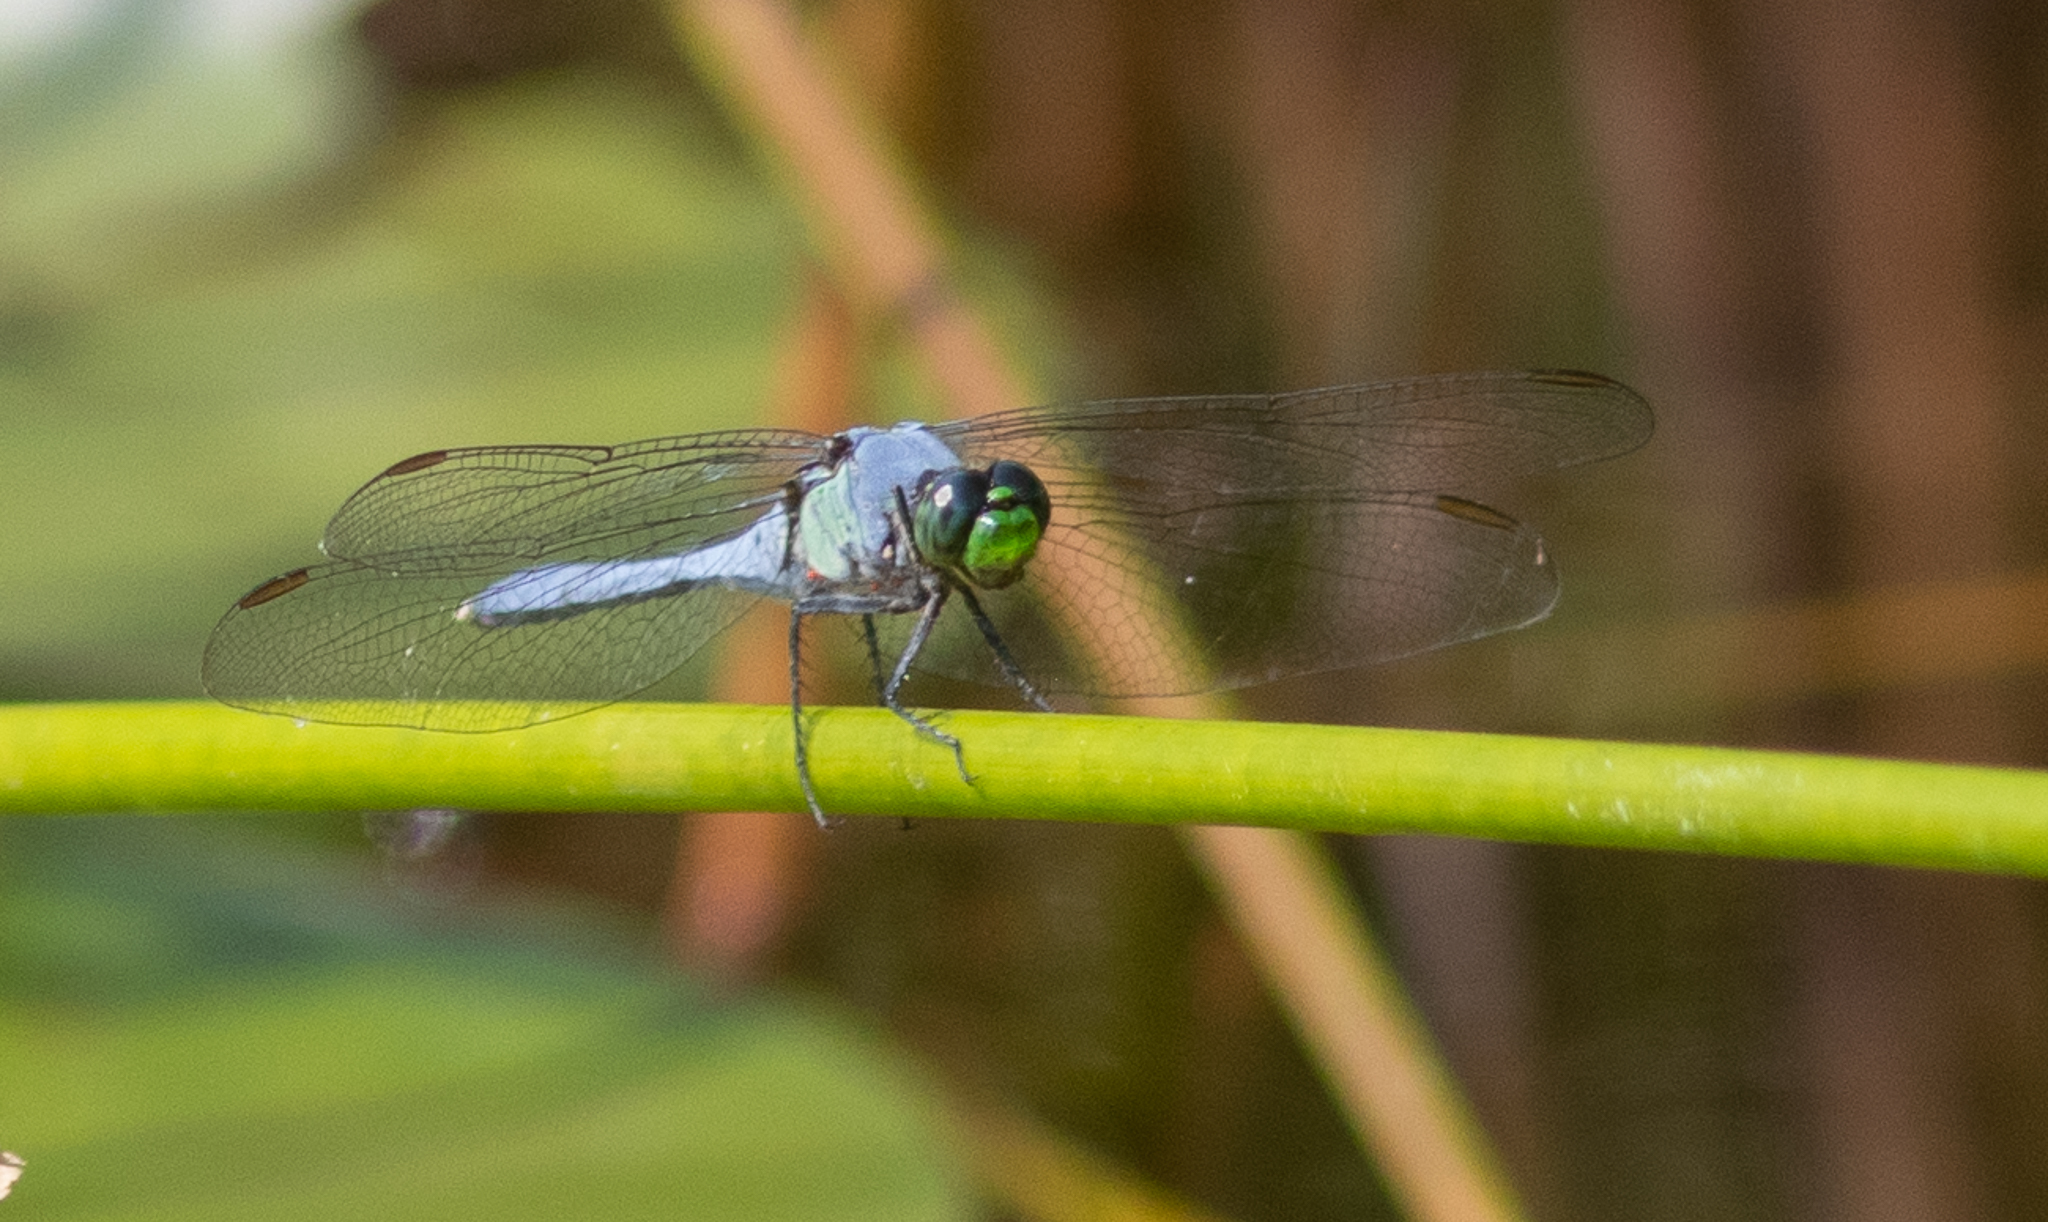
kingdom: Animalia
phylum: Arthropoda
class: Insecta
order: Odonata
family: Libellulidae
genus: Erythemis
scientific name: Erythemis simplicicollis
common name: Eastern pondhawk
